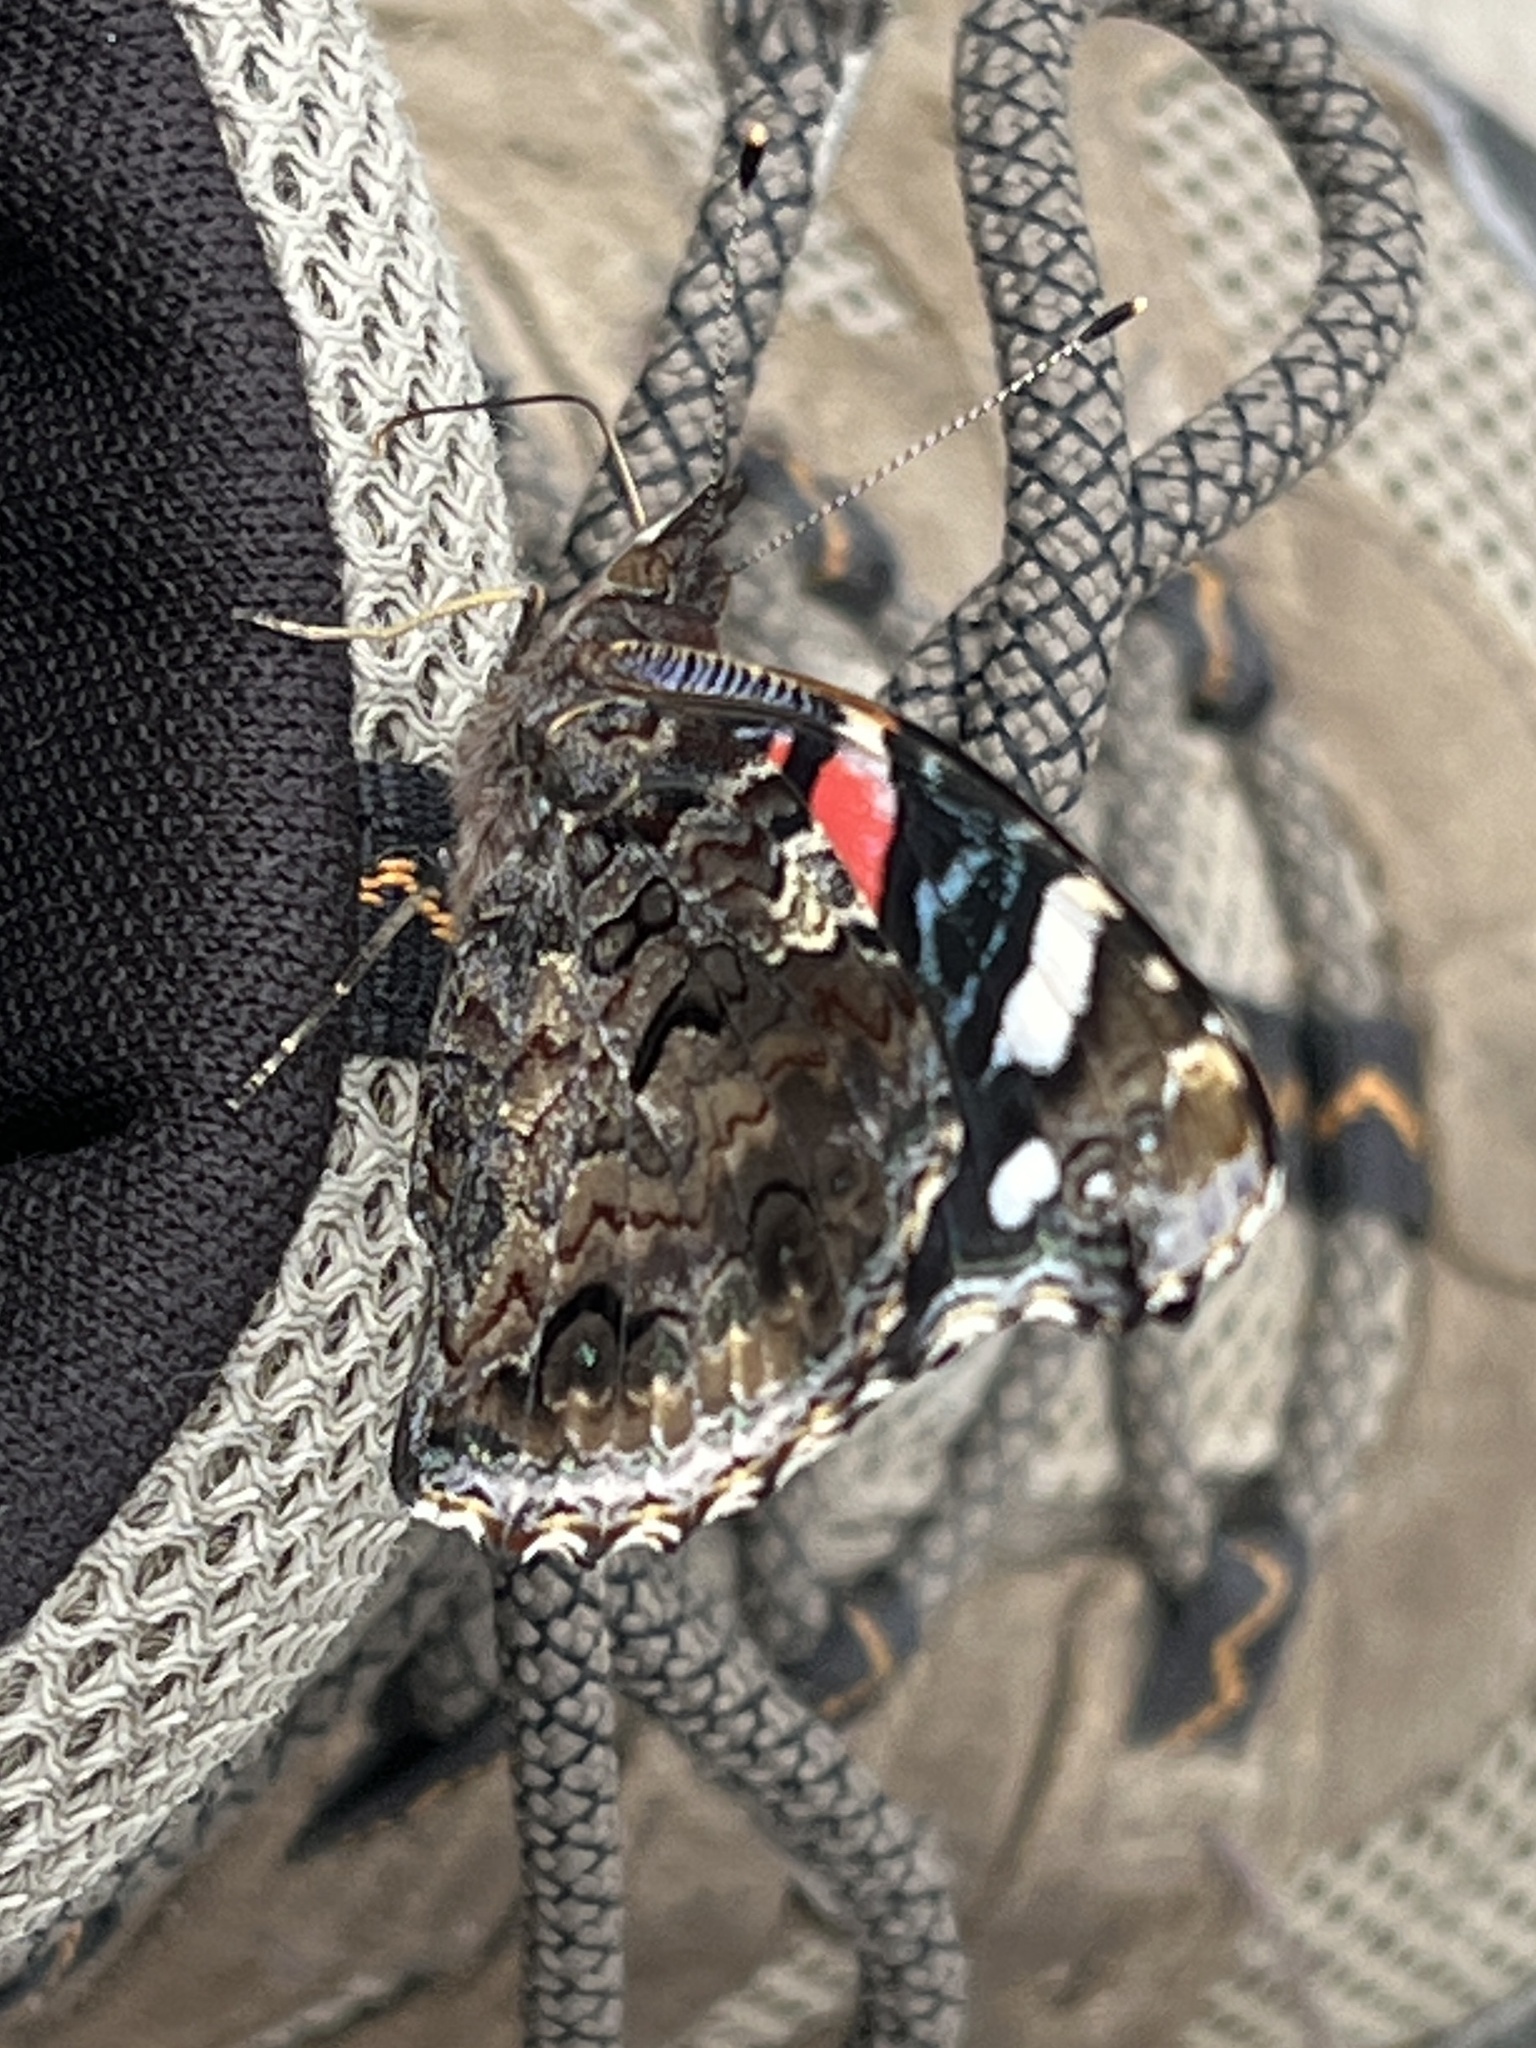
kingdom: Animalia
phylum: Arthropoda
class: Insecta
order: Lepidoptera
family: Nymphalidae
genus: Vanessa
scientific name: Vanessa atalanta
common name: Red admiral
